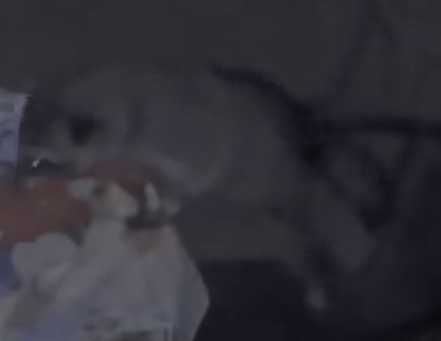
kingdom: Animalia
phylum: Chordata
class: Mammalia
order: Carnivora
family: Procyonidae
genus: Procyon
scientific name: Procyon lotor
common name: Raccoon
